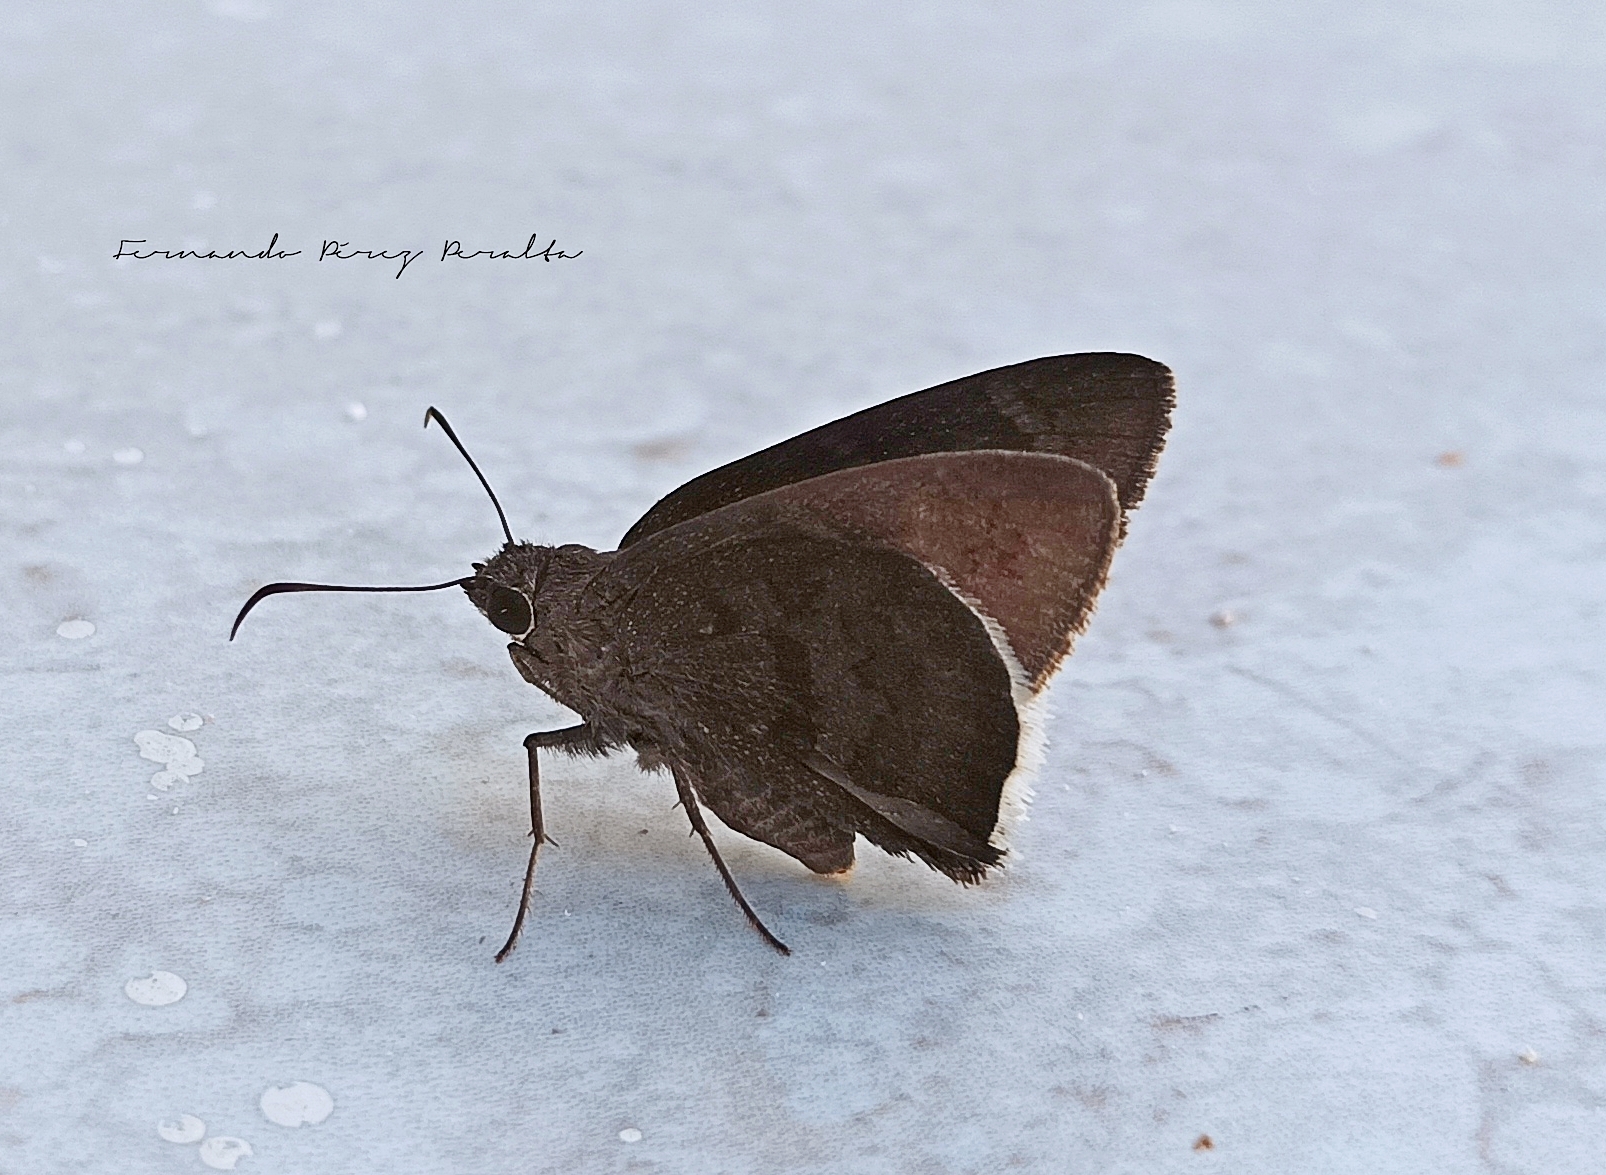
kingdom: Animalia
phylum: Arthropoda
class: Insecta
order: Lepidoptera
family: Hesperiidae
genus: Achalarus
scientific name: Achalarus Murgaria albociliatus
